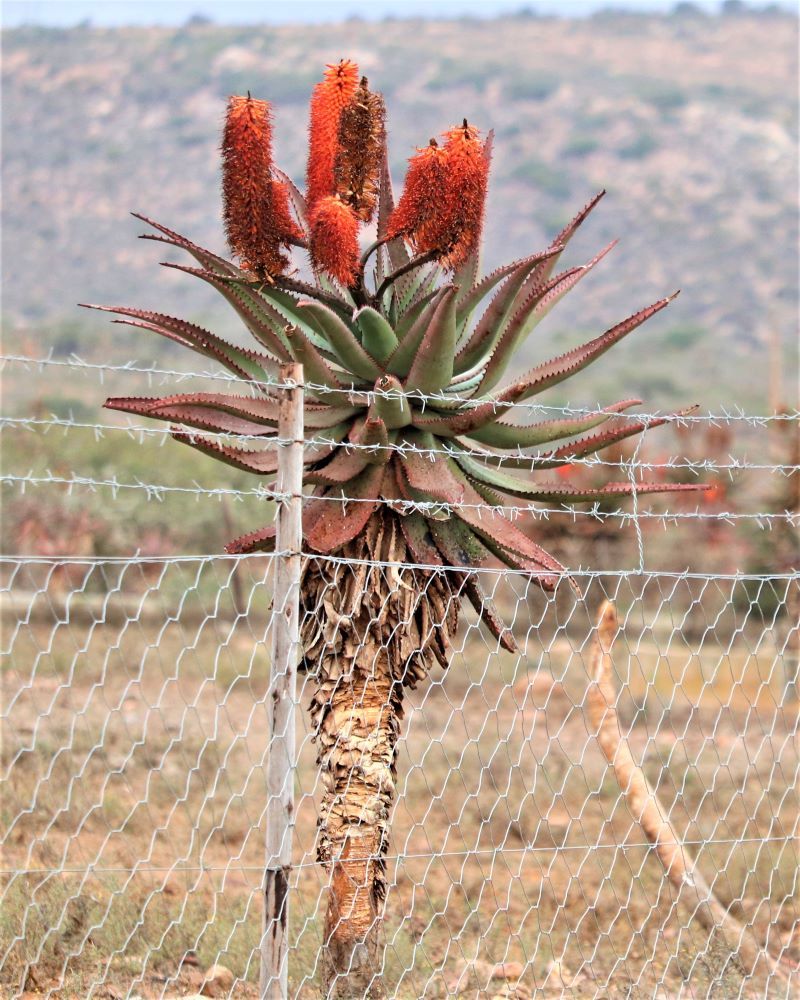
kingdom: Plantae
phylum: Tracheophyta
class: Liliopsida
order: Asparagales
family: Asphodelaceae
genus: Aloe
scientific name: Aloe ferox
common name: Bitter aloe
